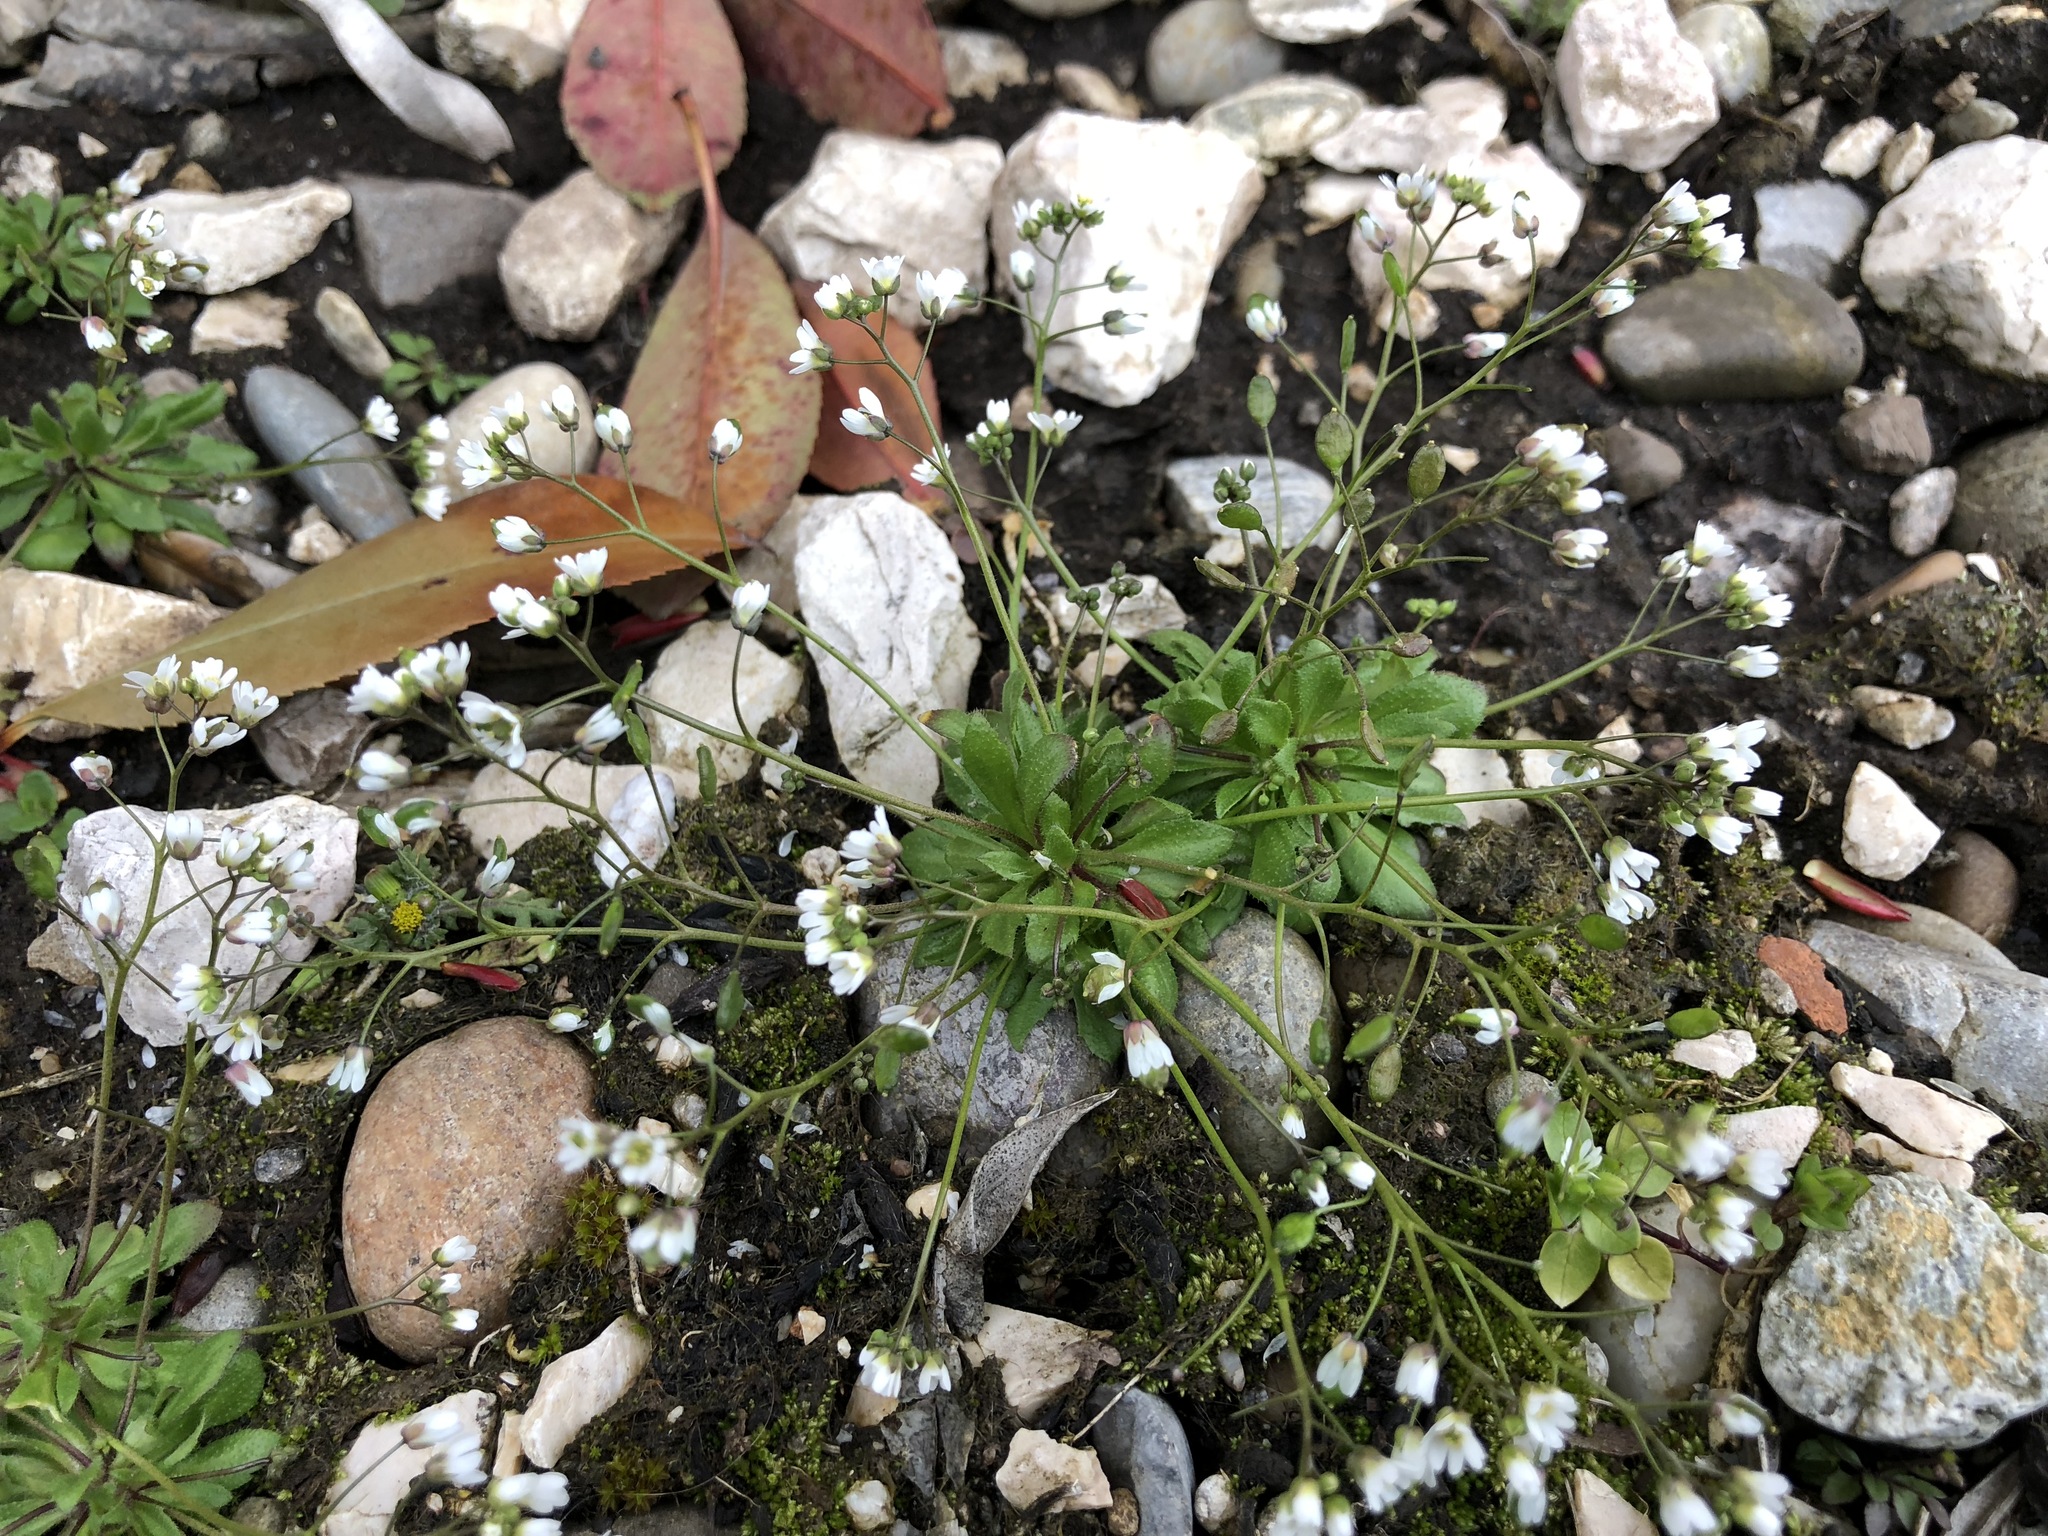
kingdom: Plantae
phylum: Tracheophyta
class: Magnoliopsida
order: Brassicales
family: Brassicaceae
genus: Draba
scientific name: Draba verna
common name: Spring draba
